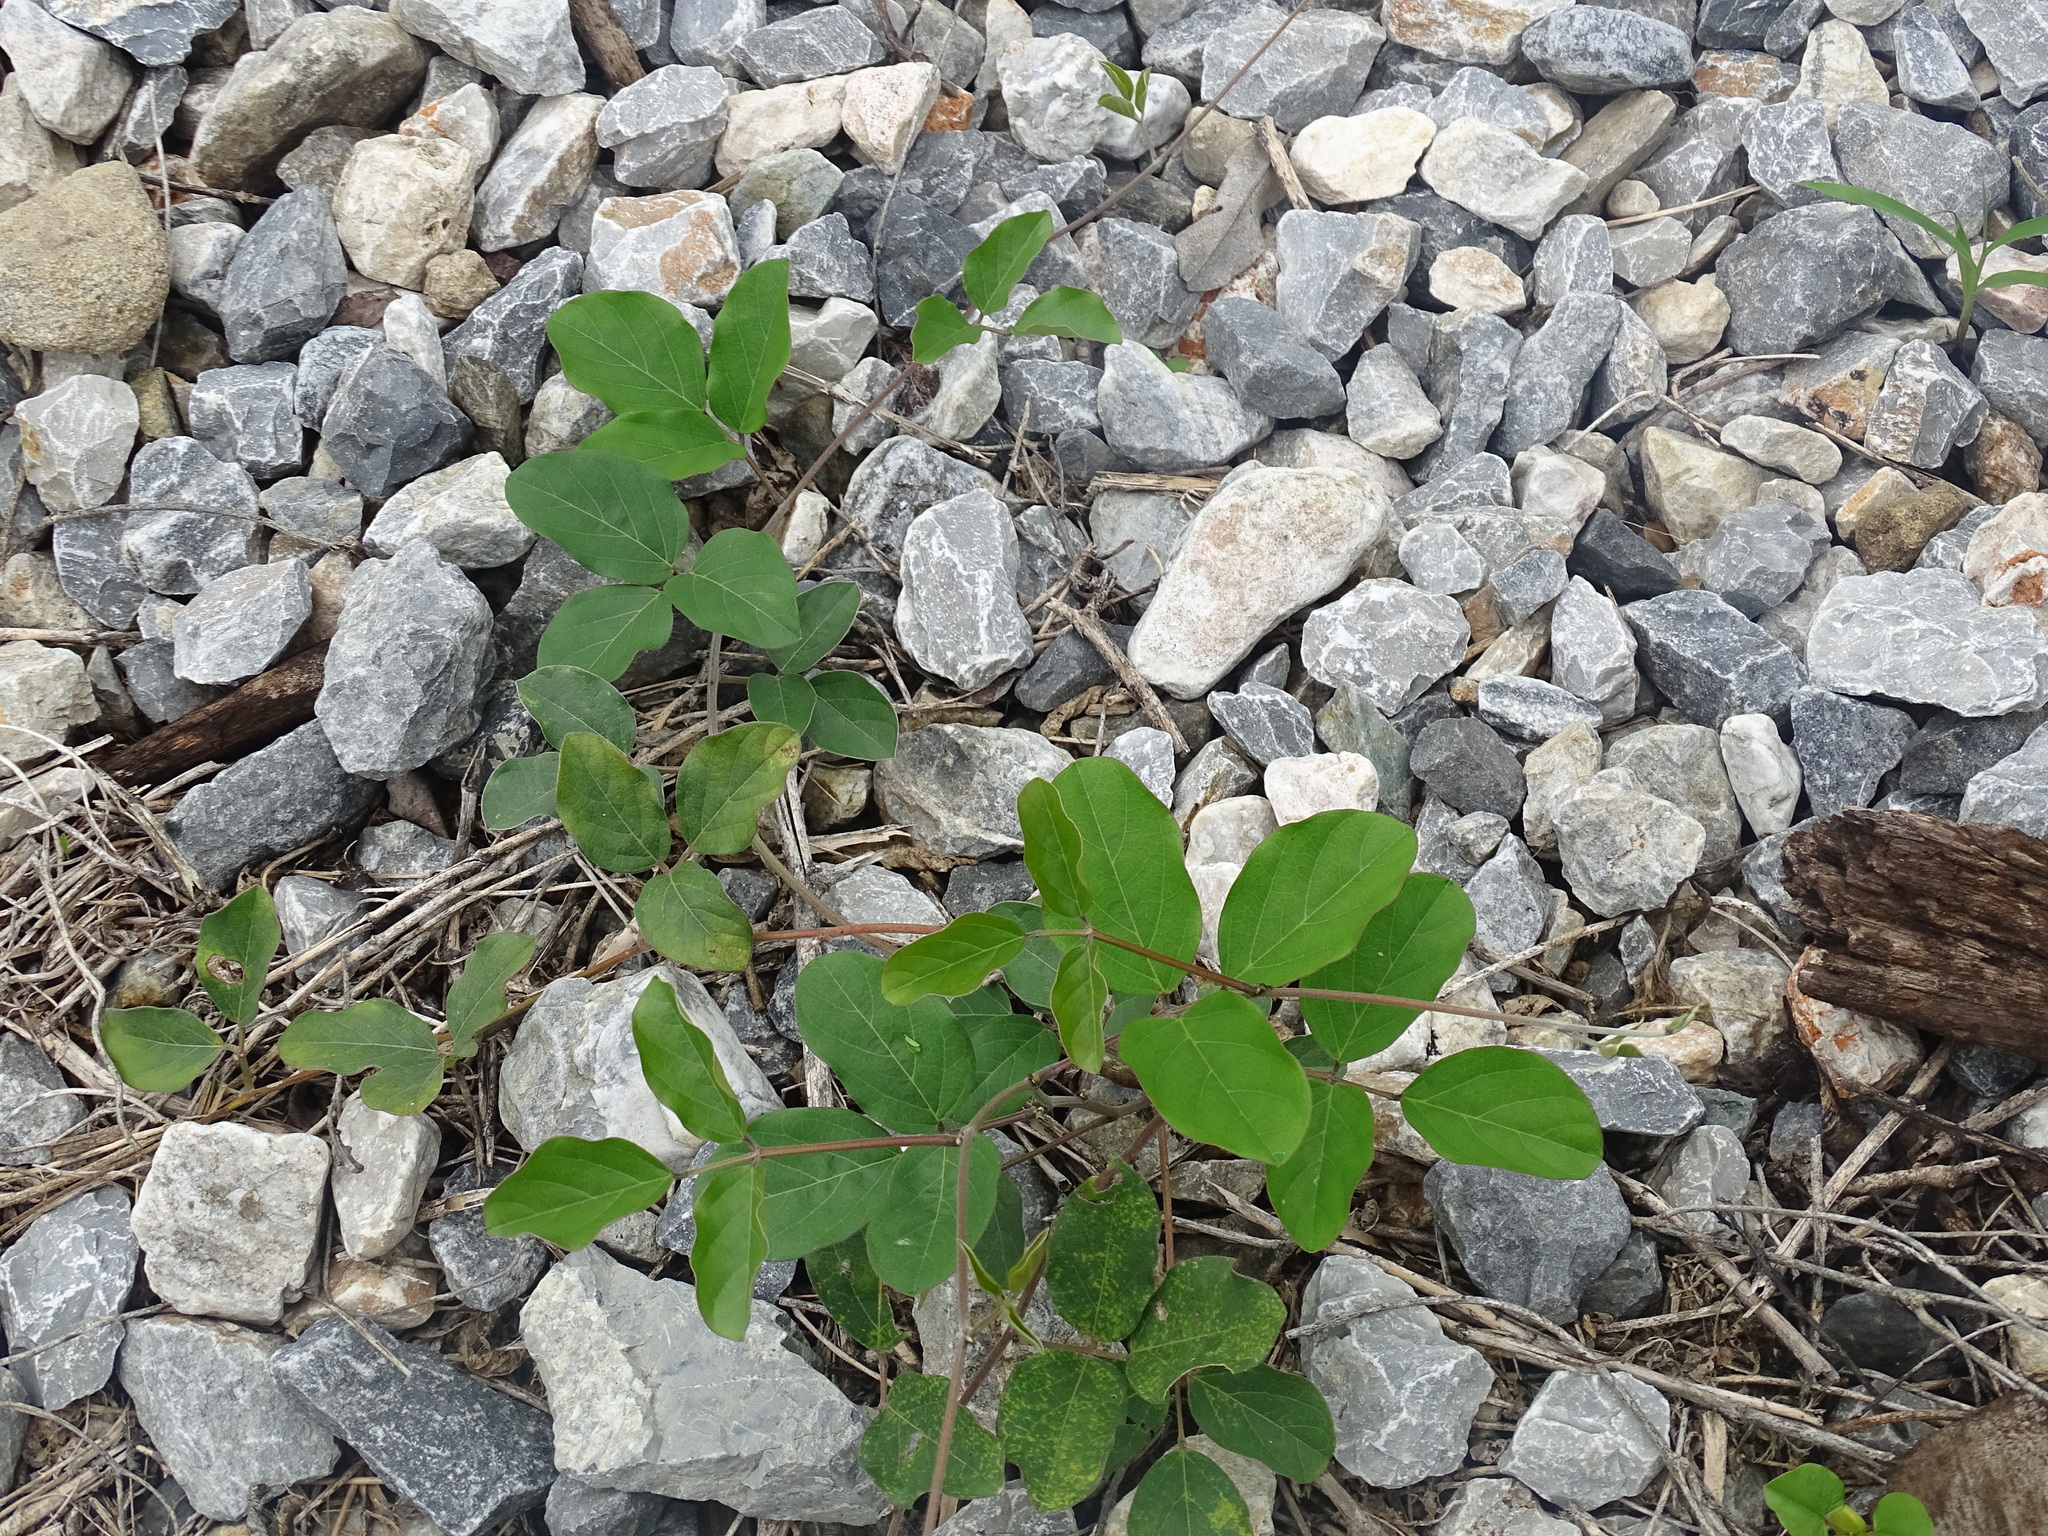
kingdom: Plantae
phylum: Tracheophyta
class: Magnoliopsida
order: Fabales
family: Fabaceae
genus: Canavalia
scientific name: Canavalia brasiliensis
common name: Barbicou-bean
